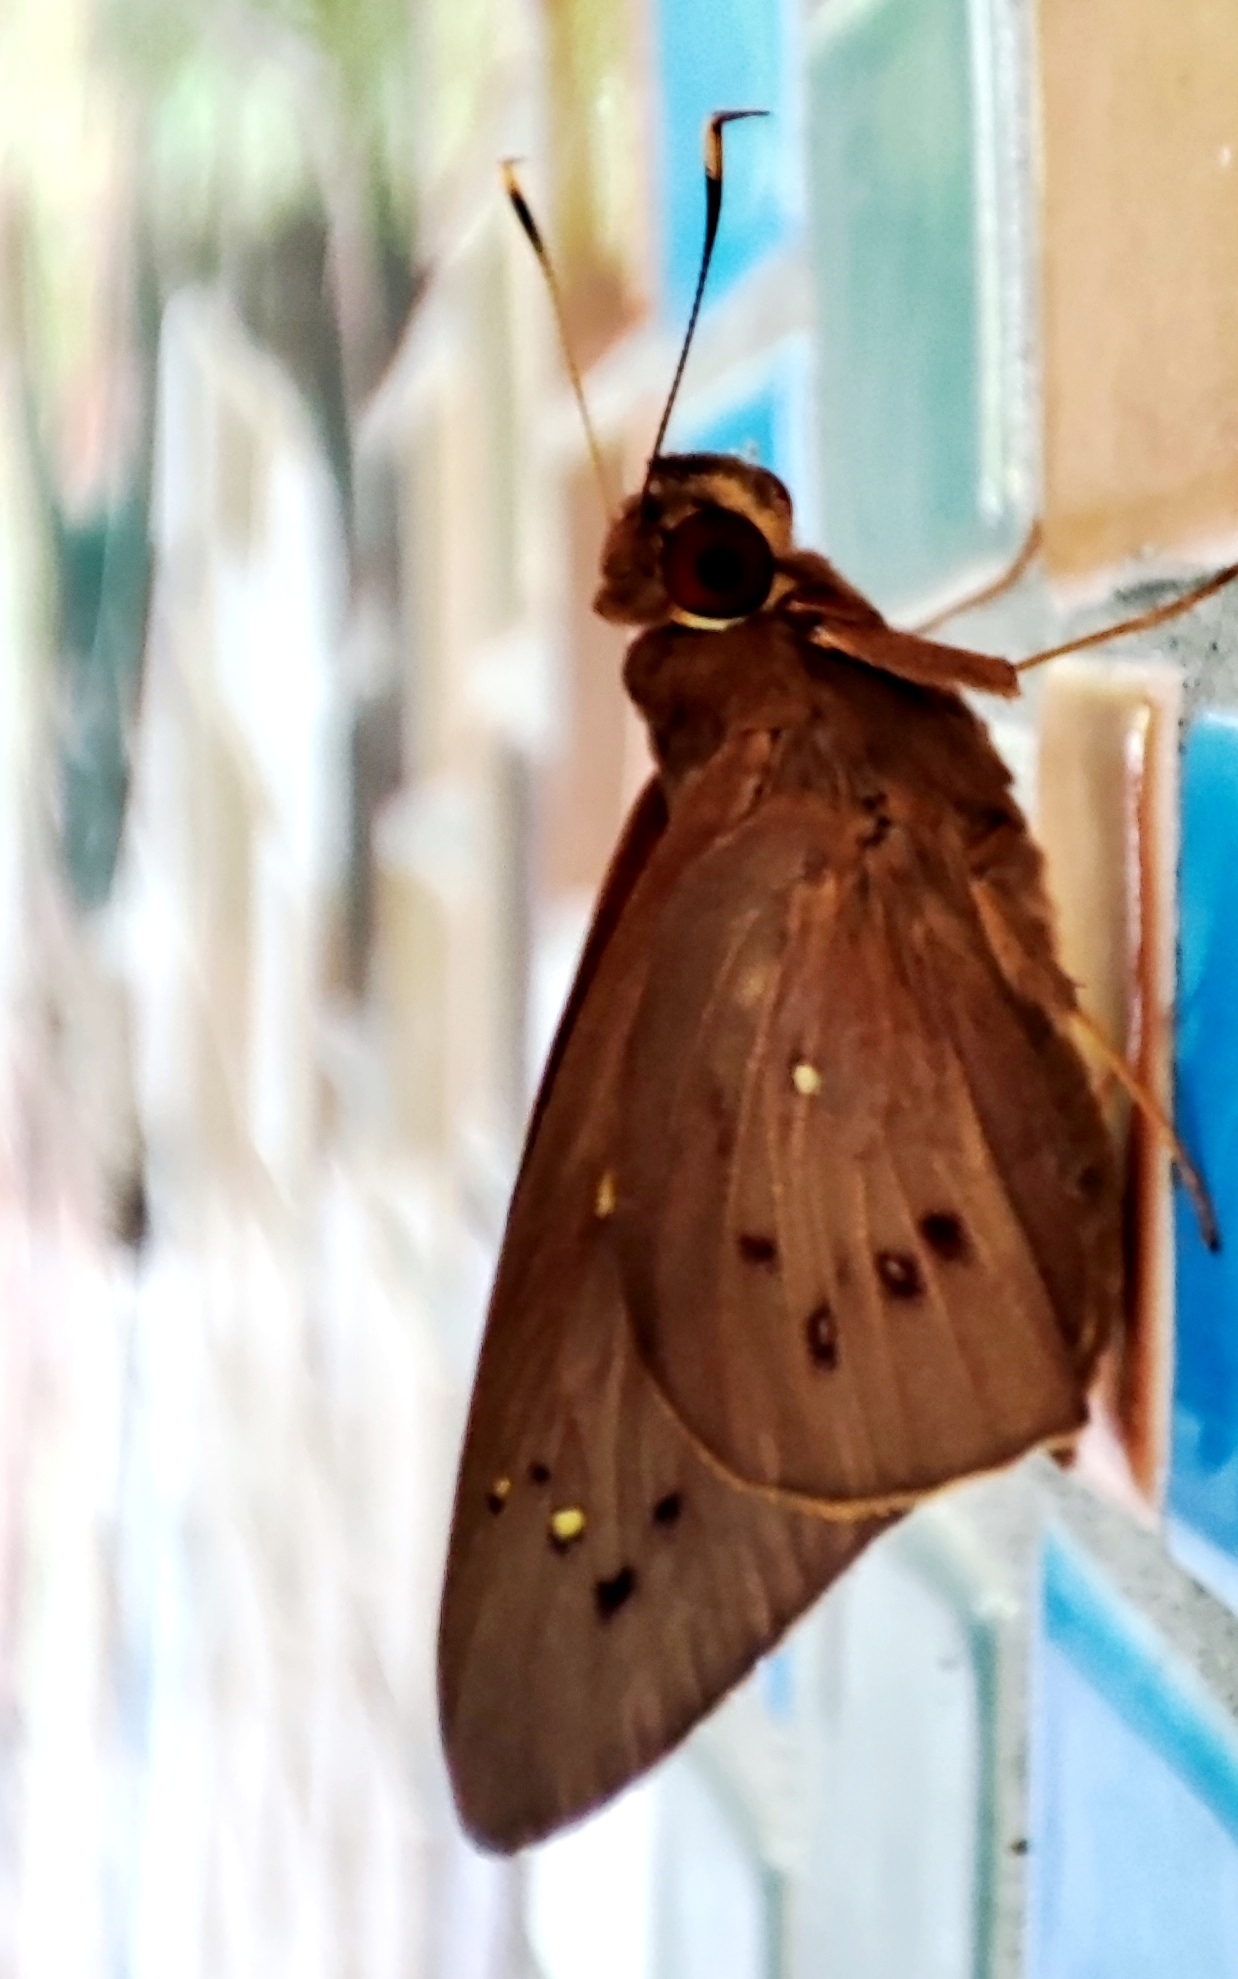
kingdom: Animalia
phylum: Arthropoda
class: Insecta
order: Lepidoptera
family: Hesperiidae
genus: Hidari
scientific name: Hidari irava
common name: Coconut skipper
